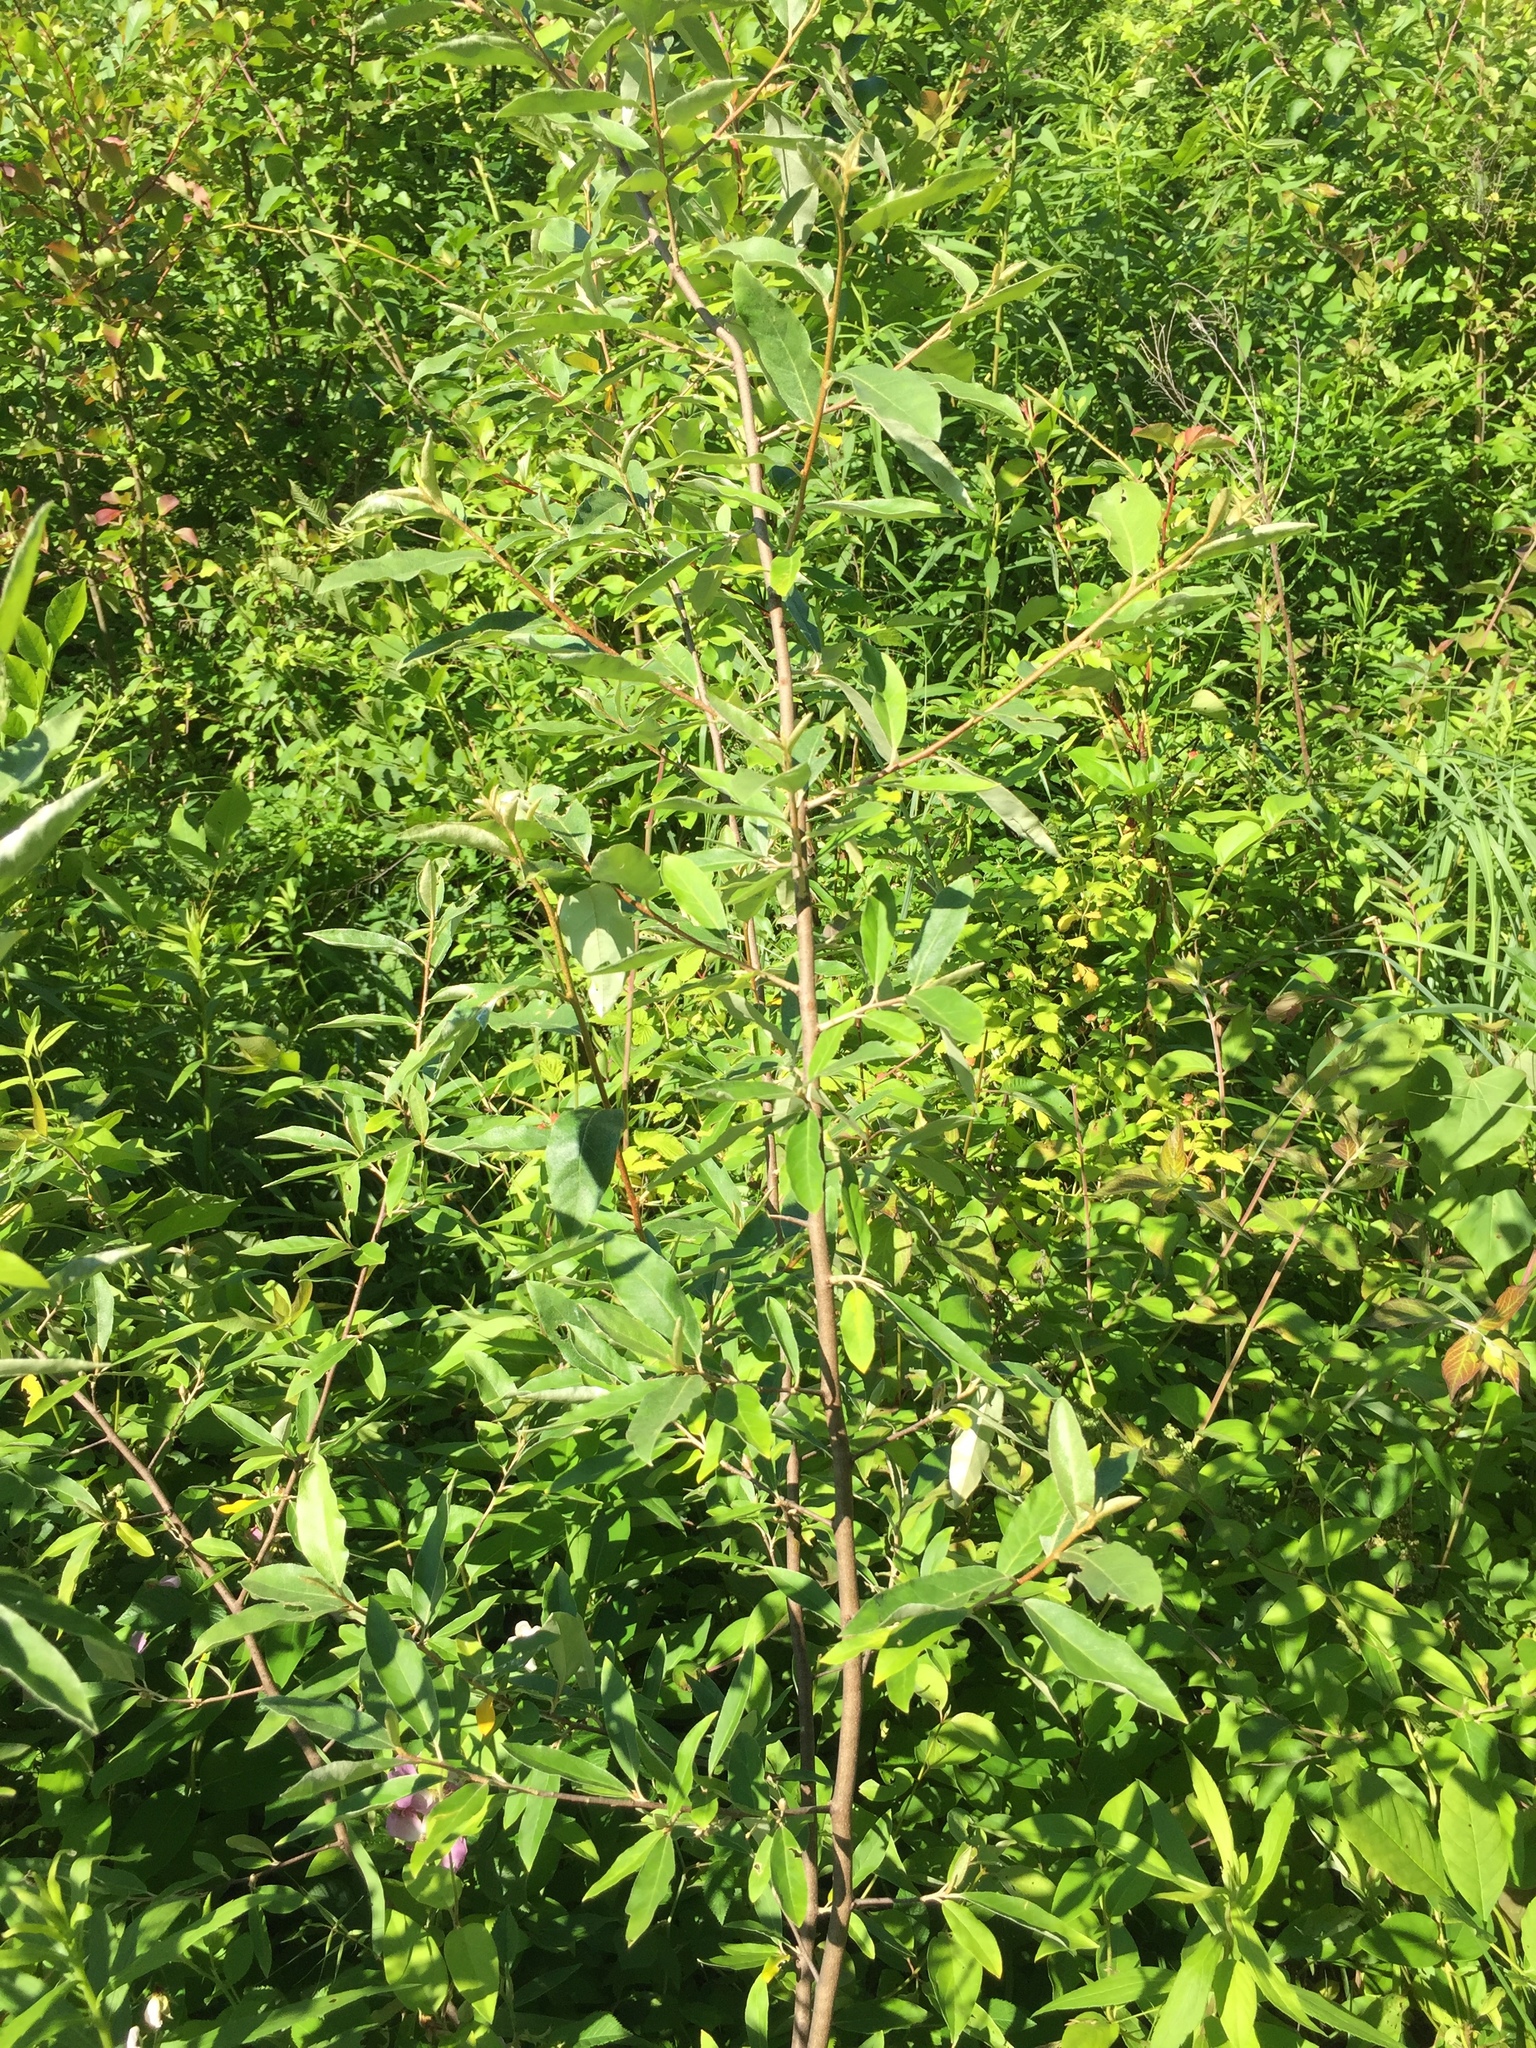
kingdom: Plantae
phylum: Tracheophyta
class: Magnoliopsida
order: Rosales
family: Elaeagnaceae
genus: Elaeagnus
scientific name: Elaeagnus umbellata
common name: Autumn olive
